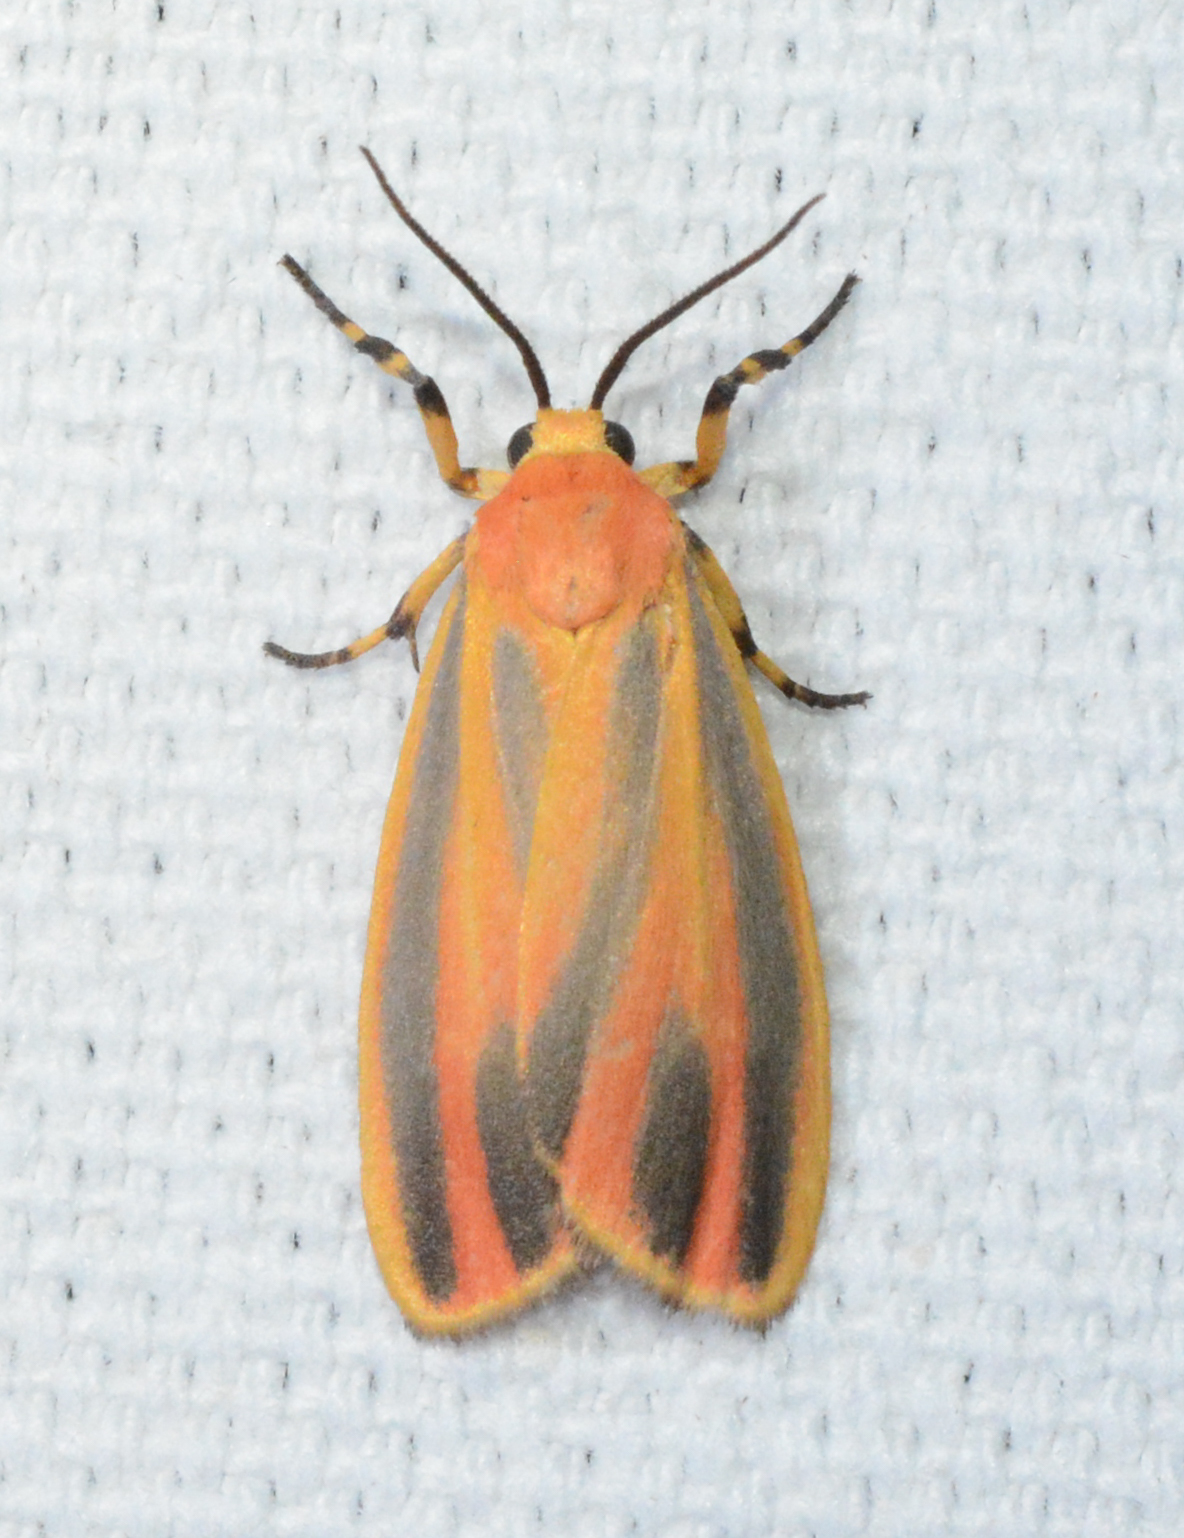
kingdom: Animalia
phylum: Arthropoda
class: Insecta
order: Lepidoptera
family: Erebidae
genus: Hypoprepia
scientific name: Hypoprepia fucosa
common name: Painted lichen moth
